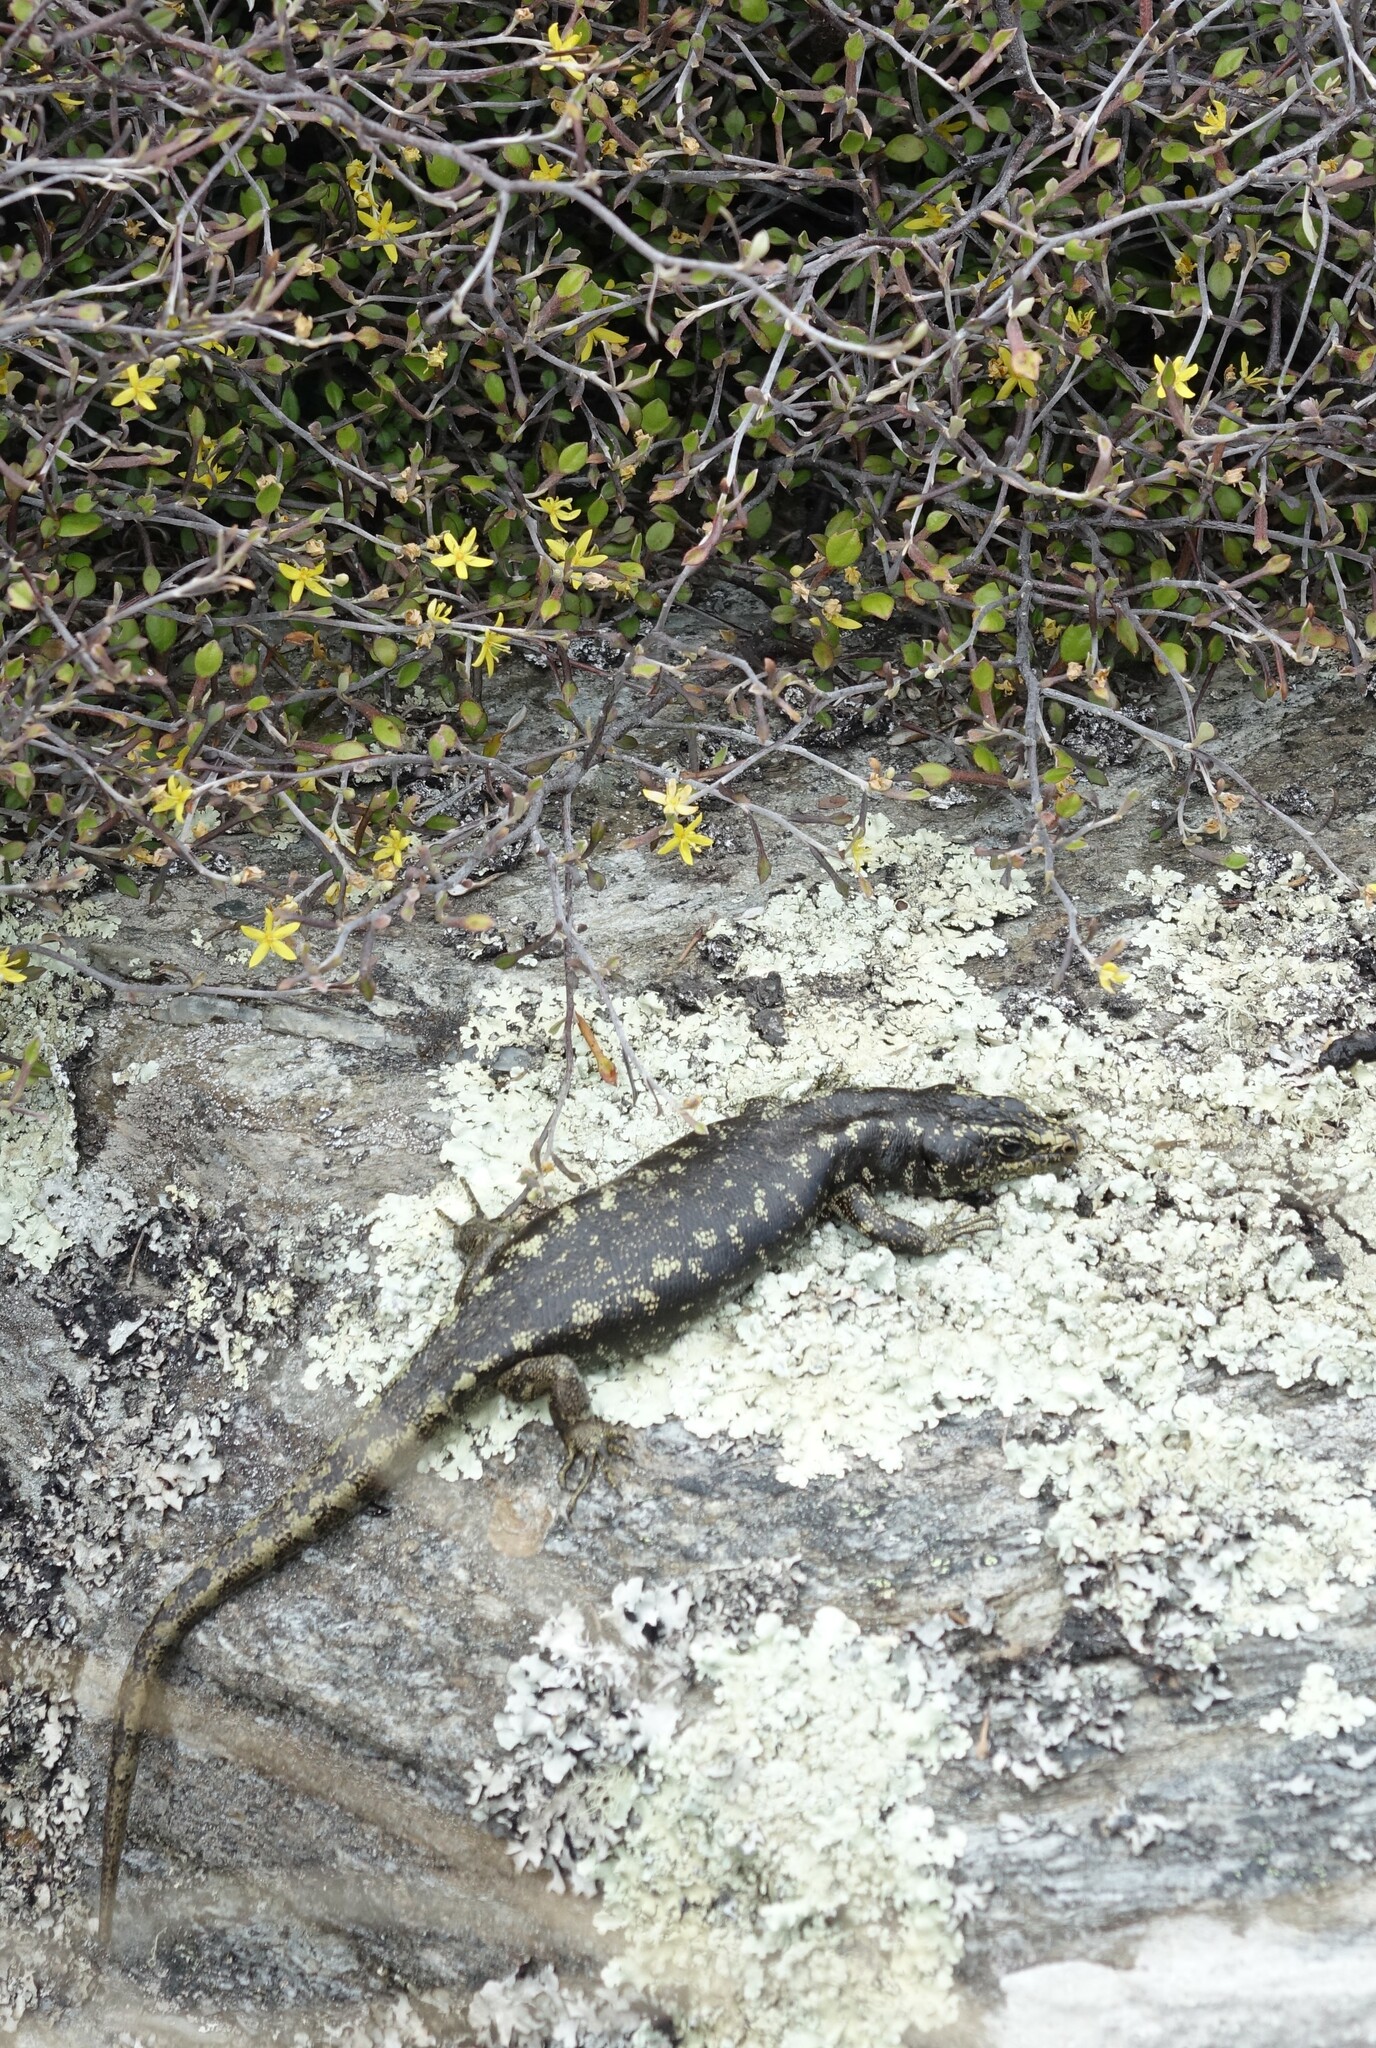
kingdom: Animalia
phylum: Chordata
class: Squamata
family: Scincidae
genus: Oligosoma
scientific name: Oligosoma otagense
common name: Otago skink
